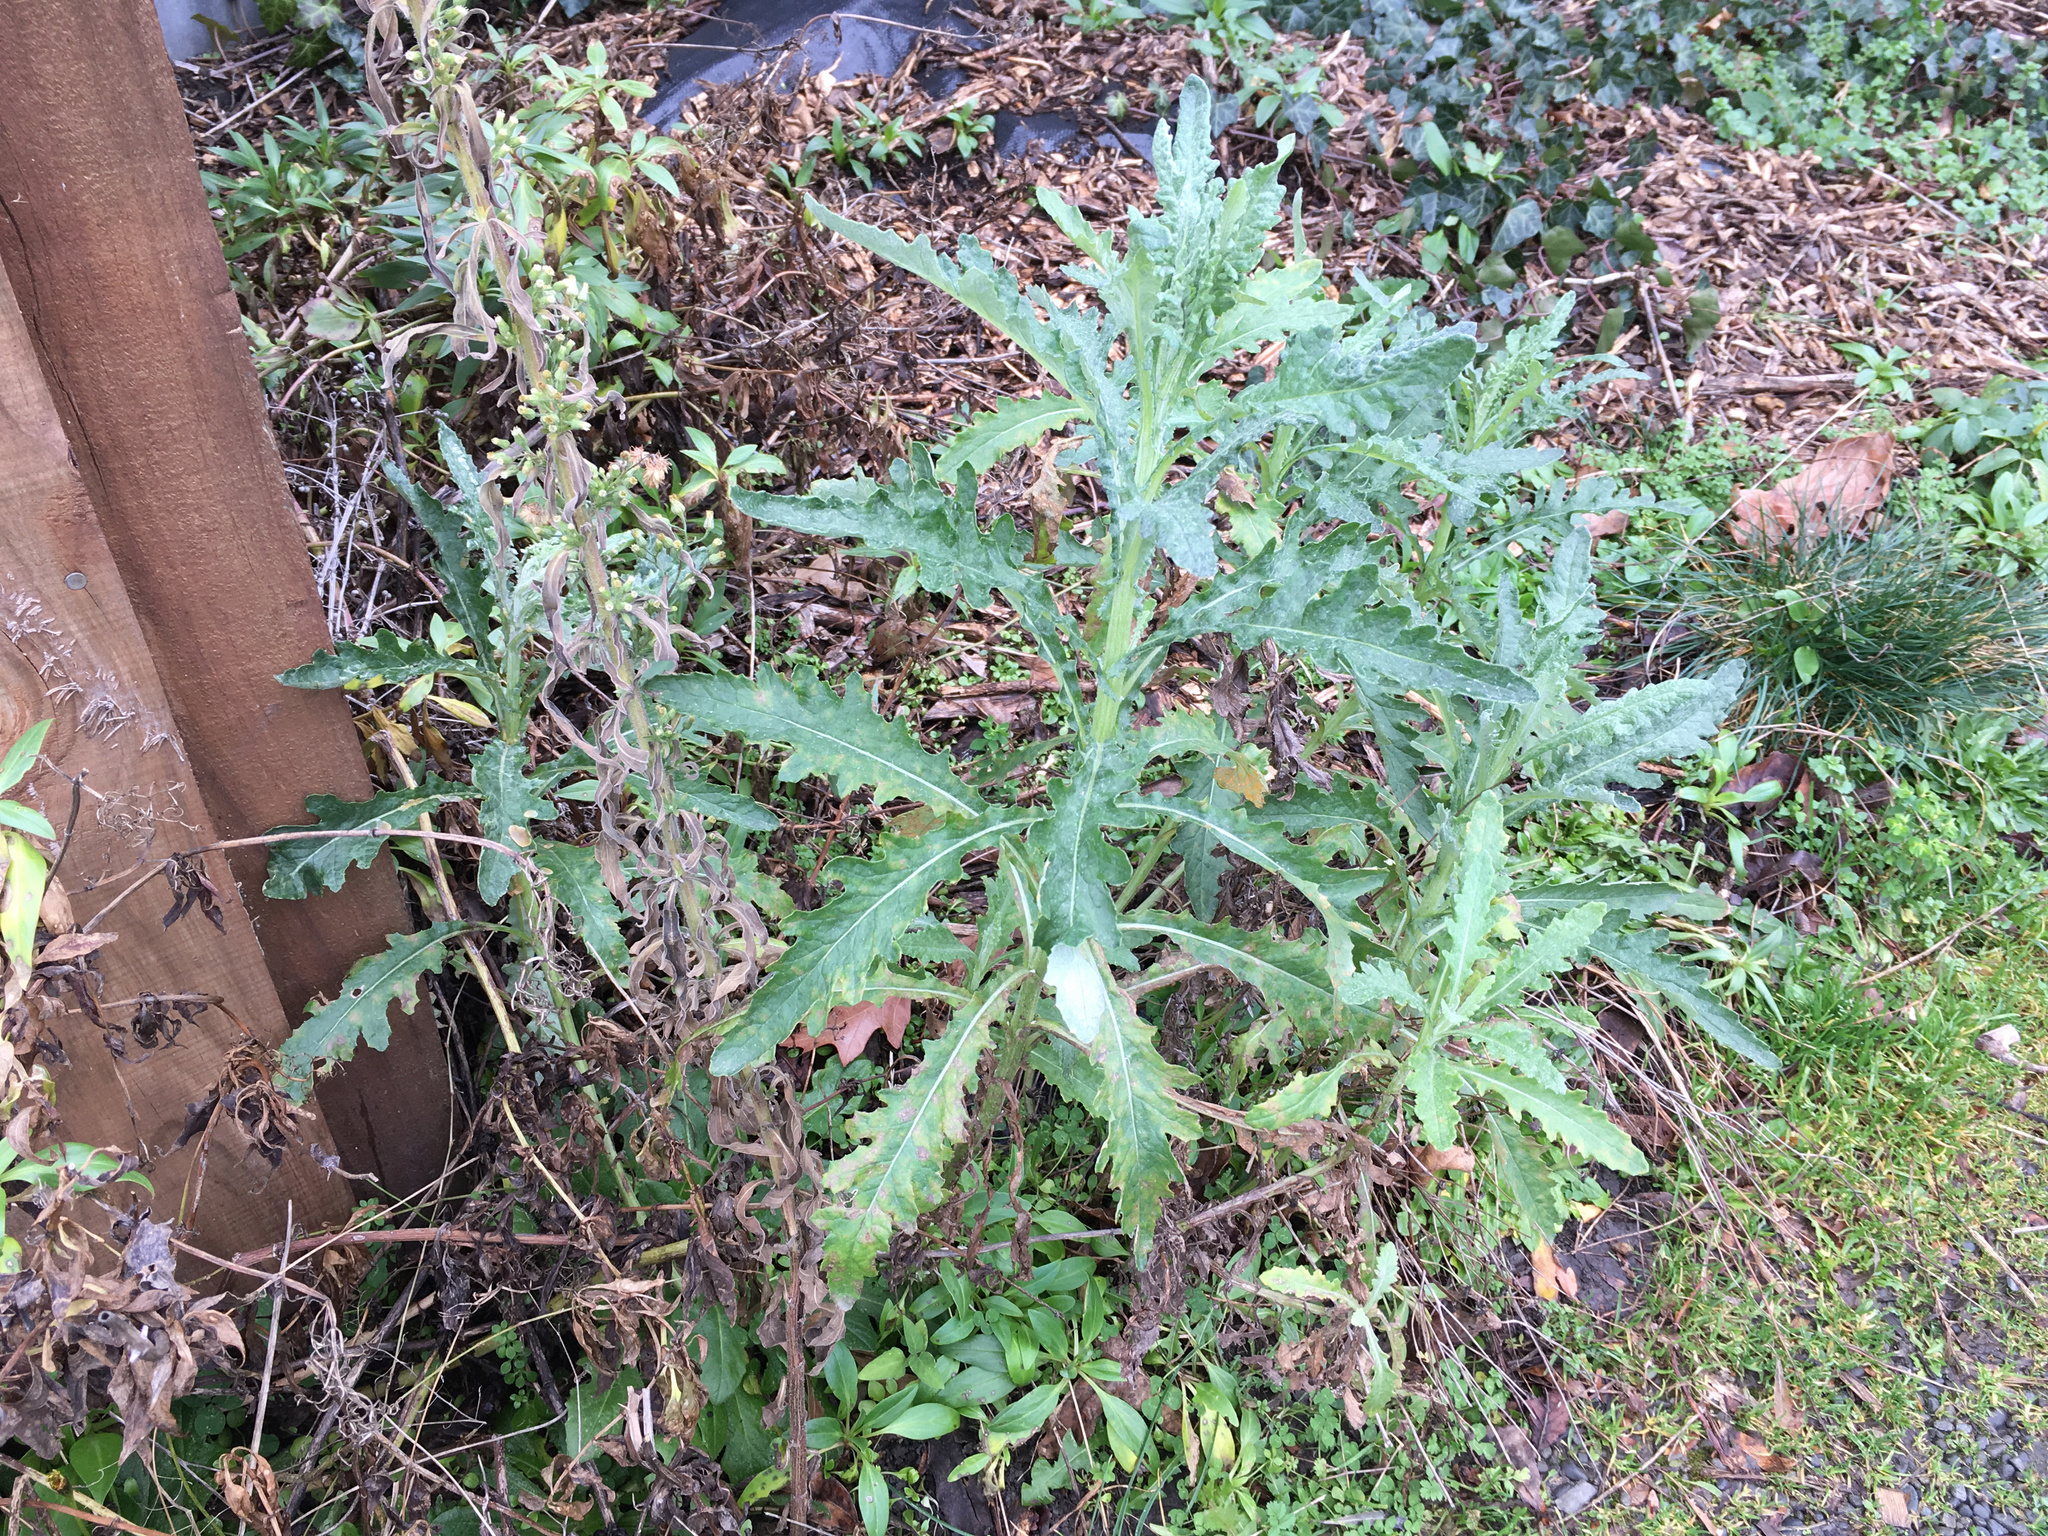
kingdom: Plantae
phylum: Tracheophyta
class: Magnoliopsida
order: Asterales
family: Asteraceae
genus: Senecio
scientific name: Senecio glomeratus
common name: Cutleaf burnweed
